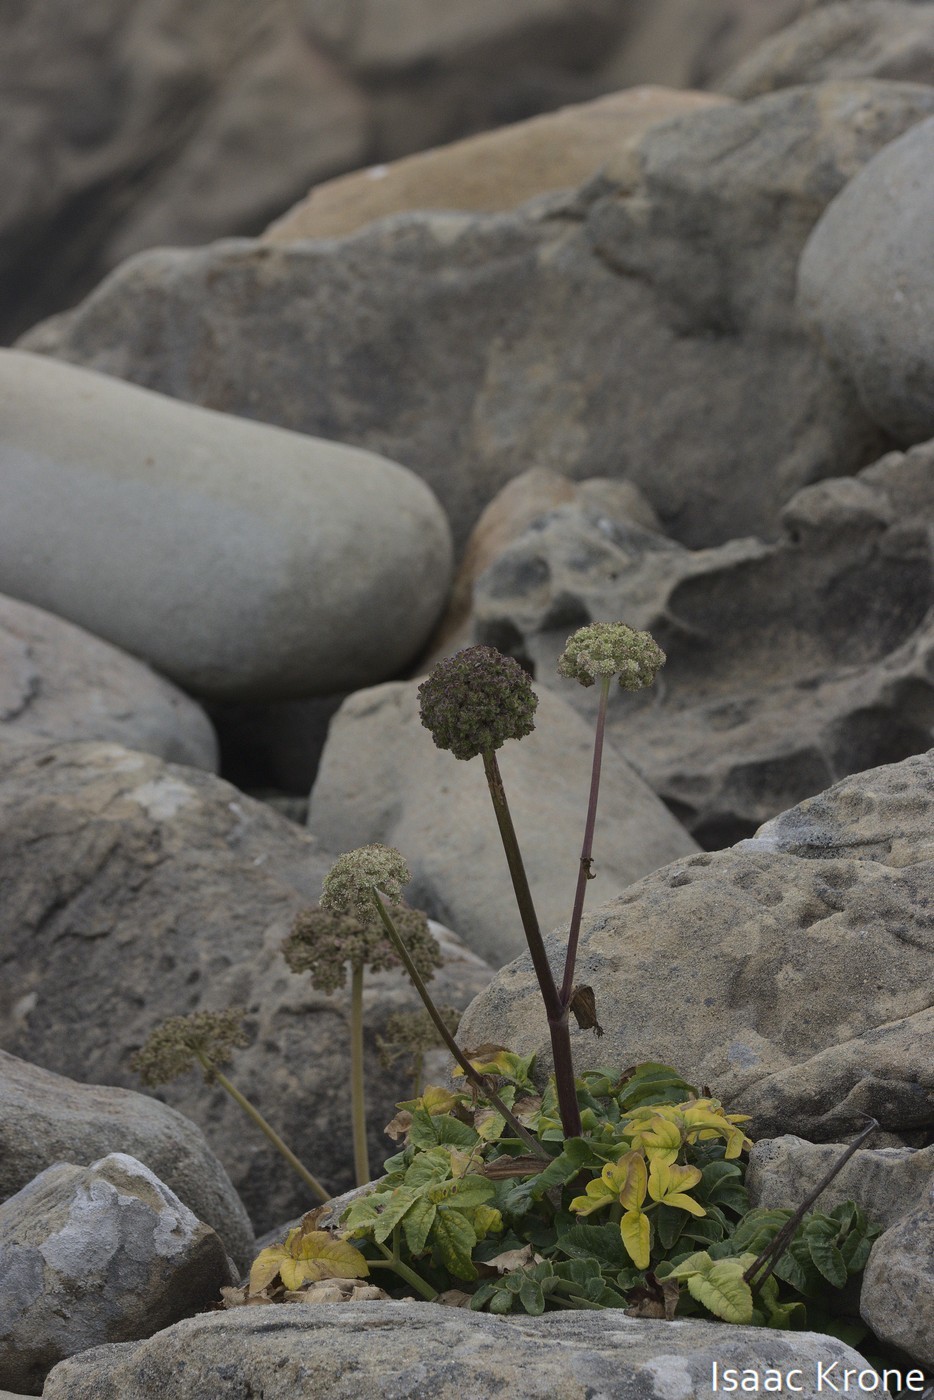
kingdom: Plantae
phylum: Tracheophyta
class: Magnoliopsida
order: Apiales
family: Apiaceae
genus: Angelica
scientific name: Angelica hendersonii
